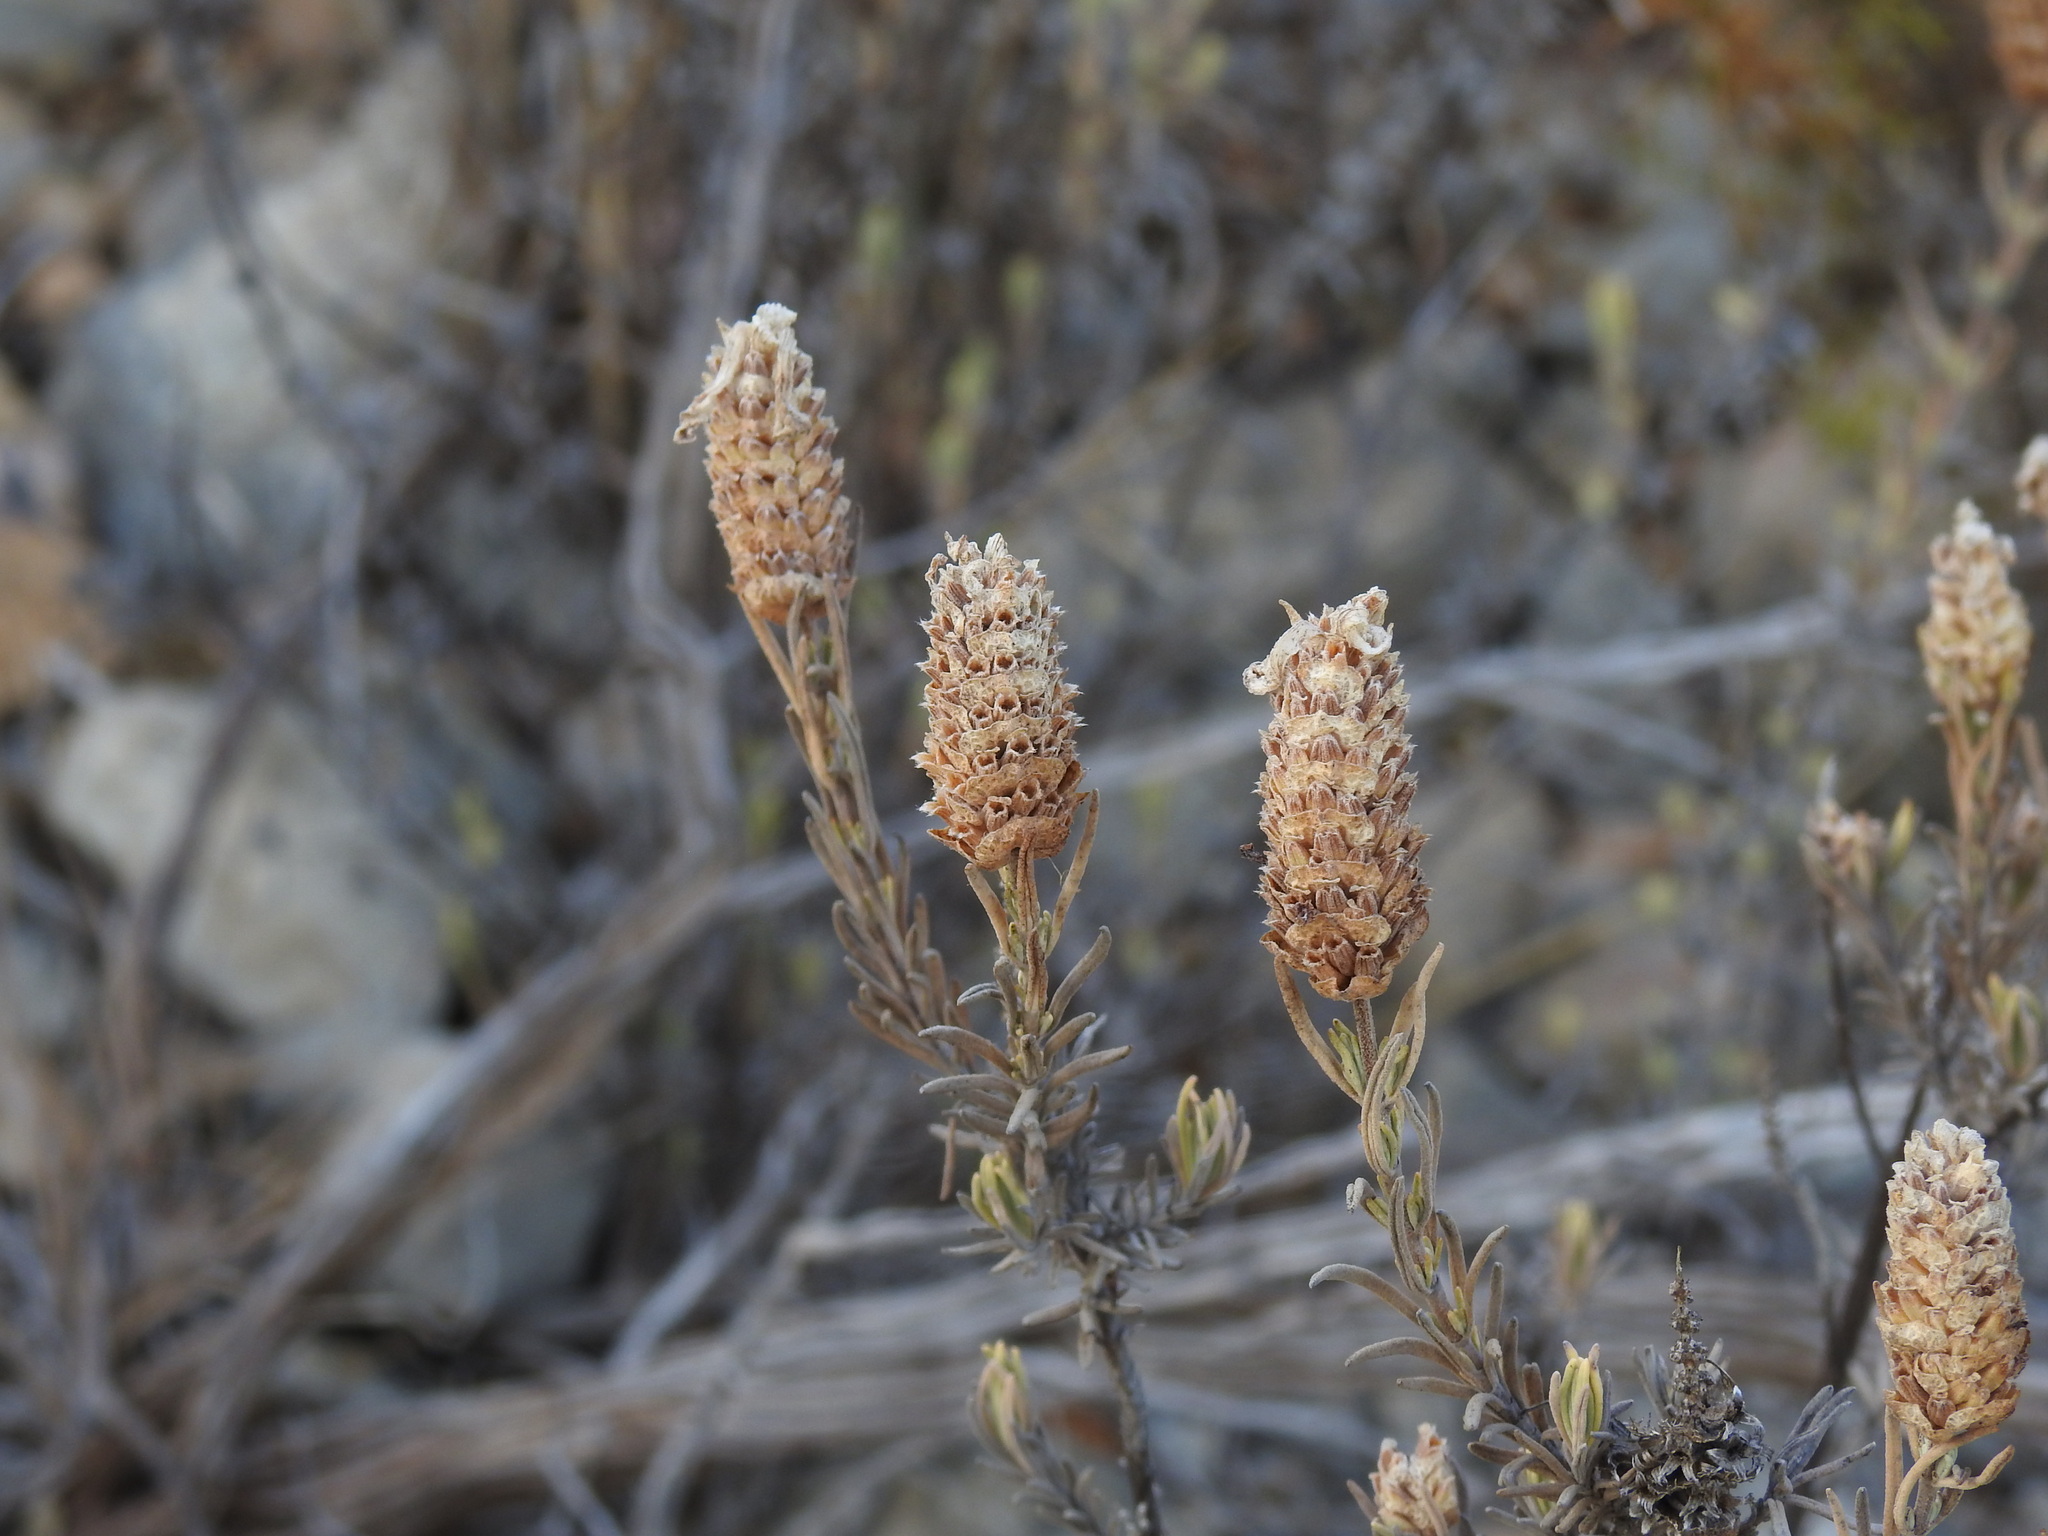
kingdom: Plantae
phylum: Tracheophyta
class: Magnoliopsida
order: Lamiales
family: Lamiaceae
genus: Lavandula
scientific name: Lavandula stoechas
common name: French lavender
